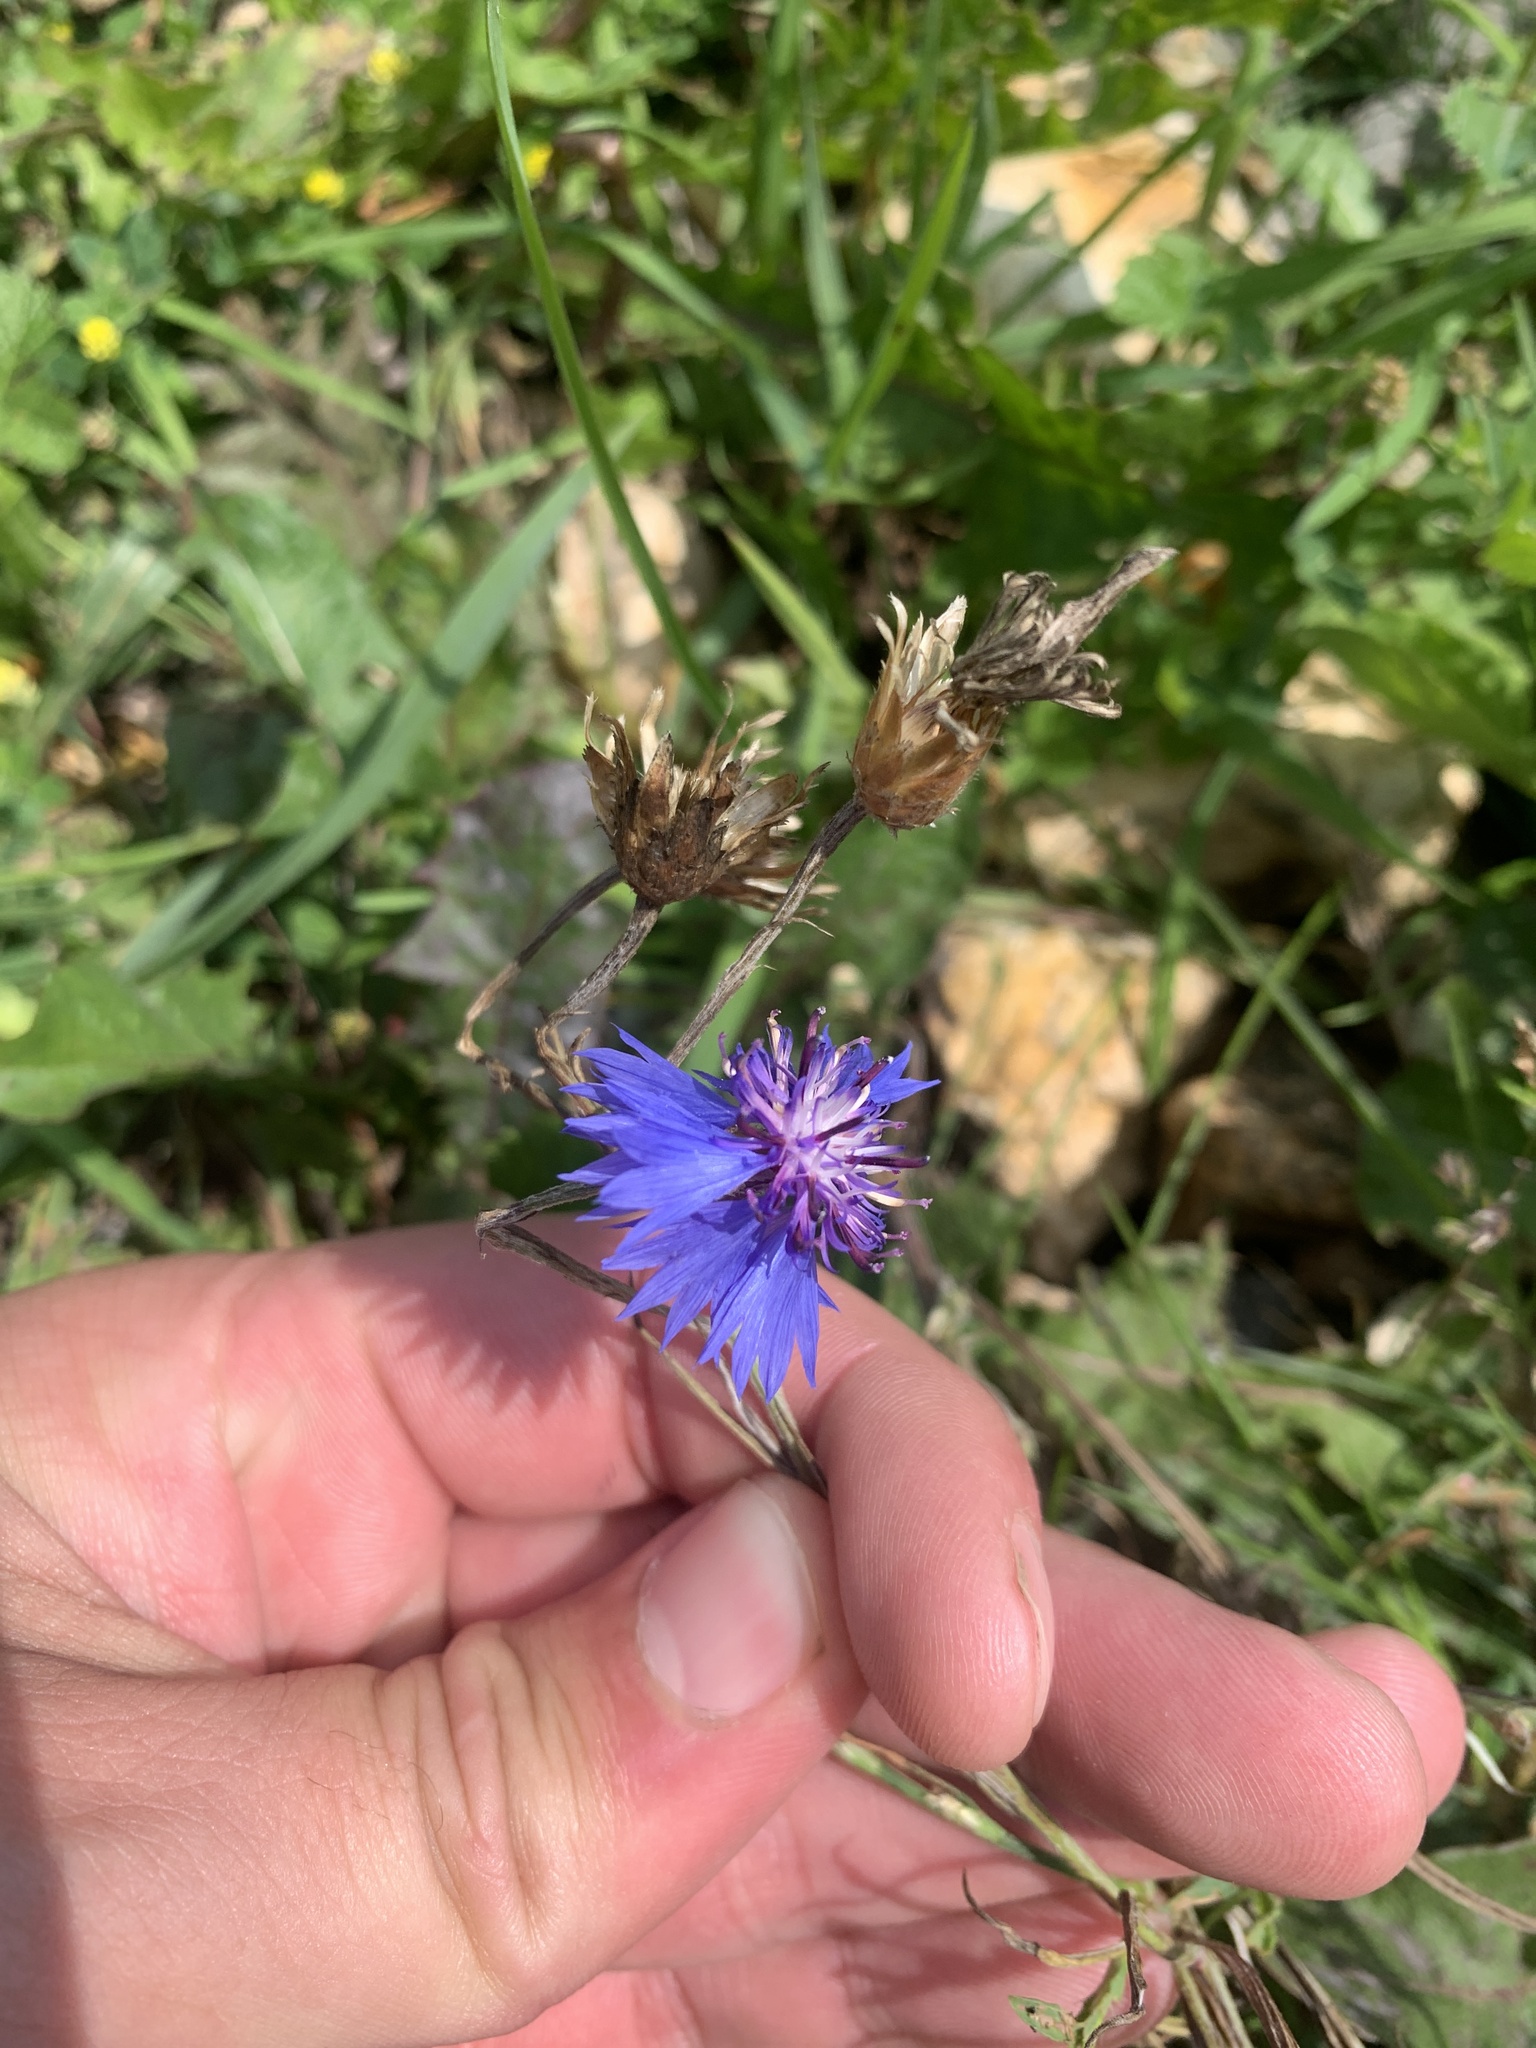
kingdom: Plantae
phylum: Tracheophyta
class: Magnoliopsida
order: Asterales
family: Asteraceae
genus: Centaurea
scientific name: Centaurea cyanus
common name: Cornflower
